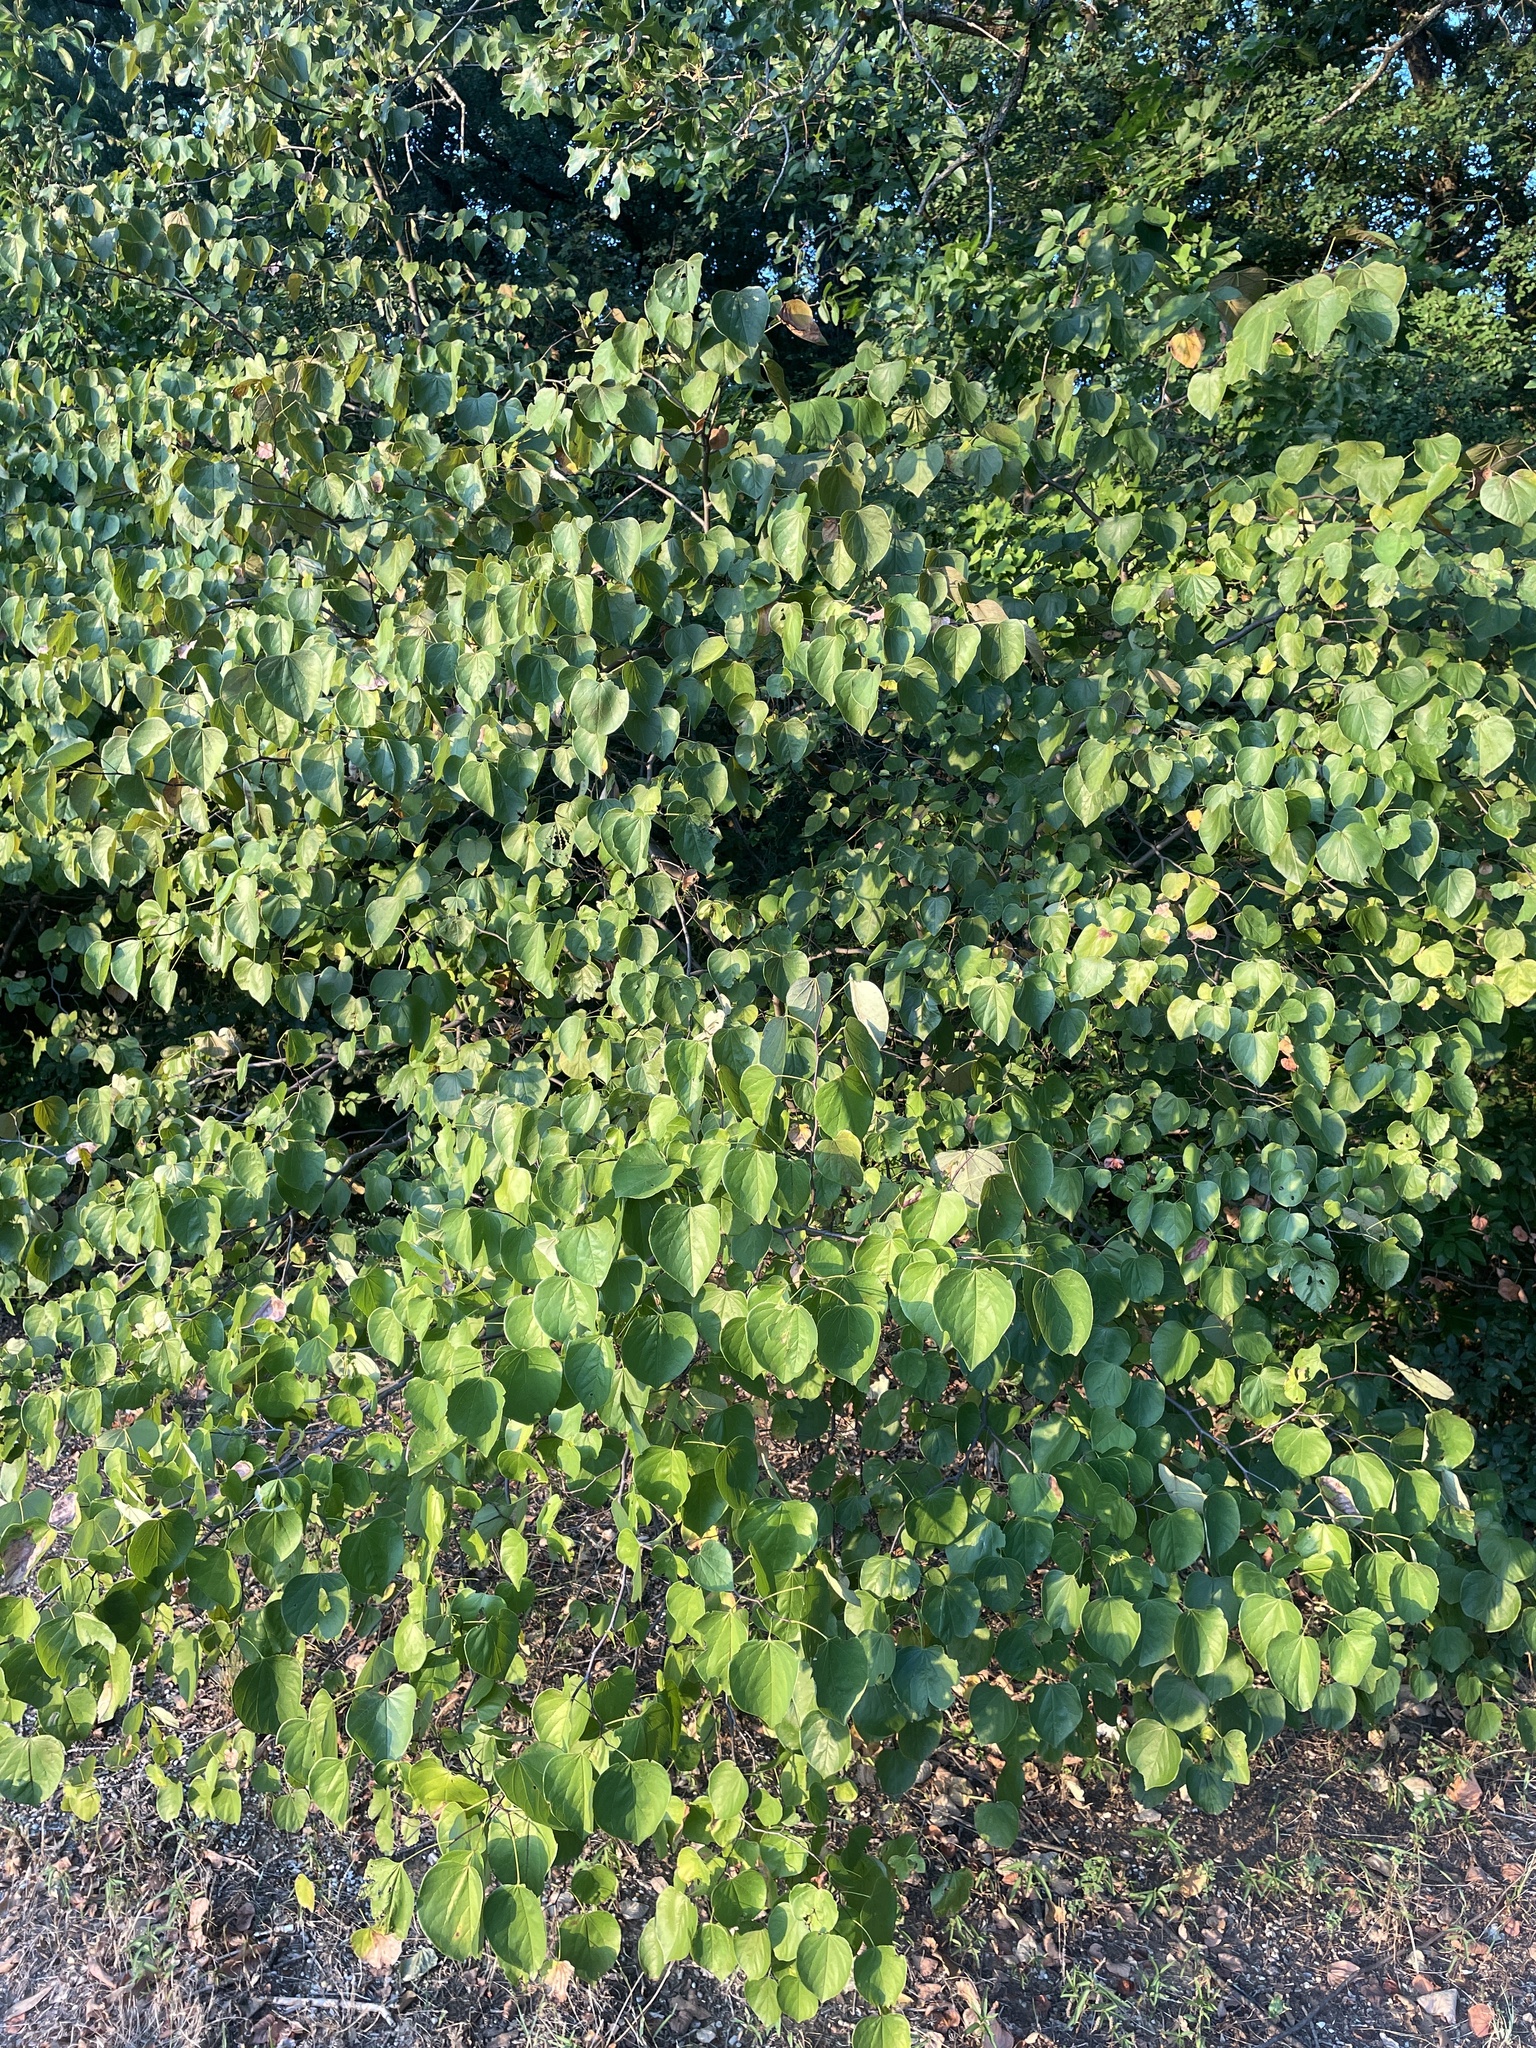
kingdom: Plantae
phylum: Tracheophyta
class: Magnoliopsida
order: Fabales
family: Fabaceae
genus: Cercis
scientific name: Cercis canadensis
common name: Eastern redbud
